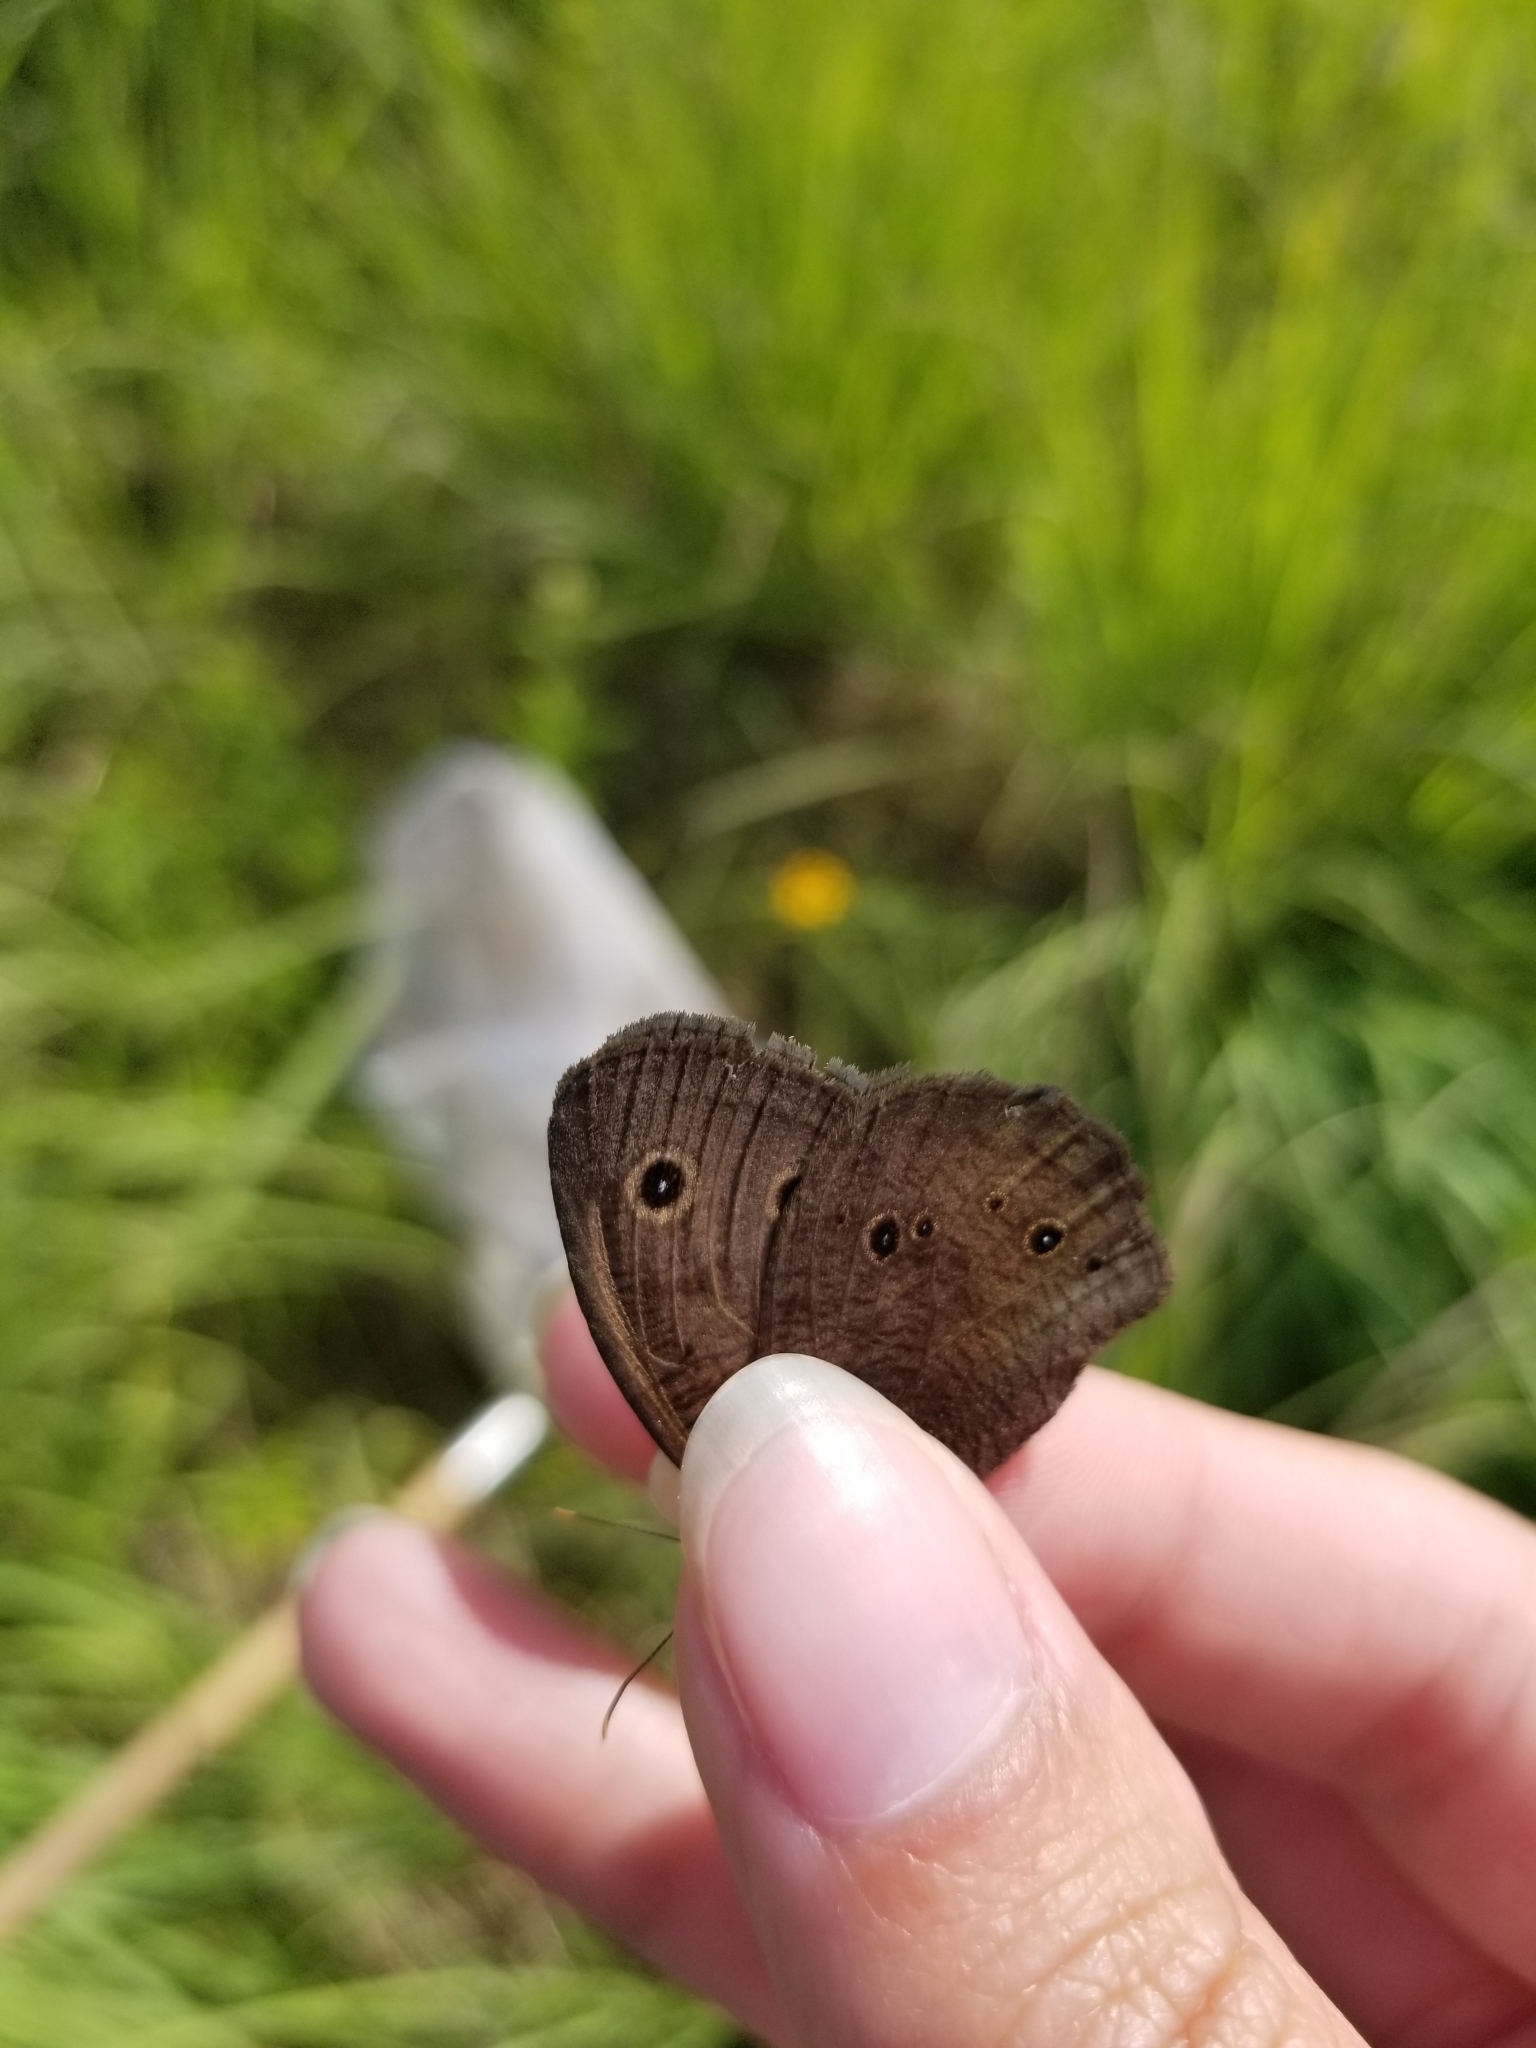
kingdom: Animalia
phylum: Arthropoda
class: Insecta
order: Lepidoptera
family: Nymphalidae
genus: Cercyonis
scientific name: Cercyonis pegala
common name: Common wood-nymph
